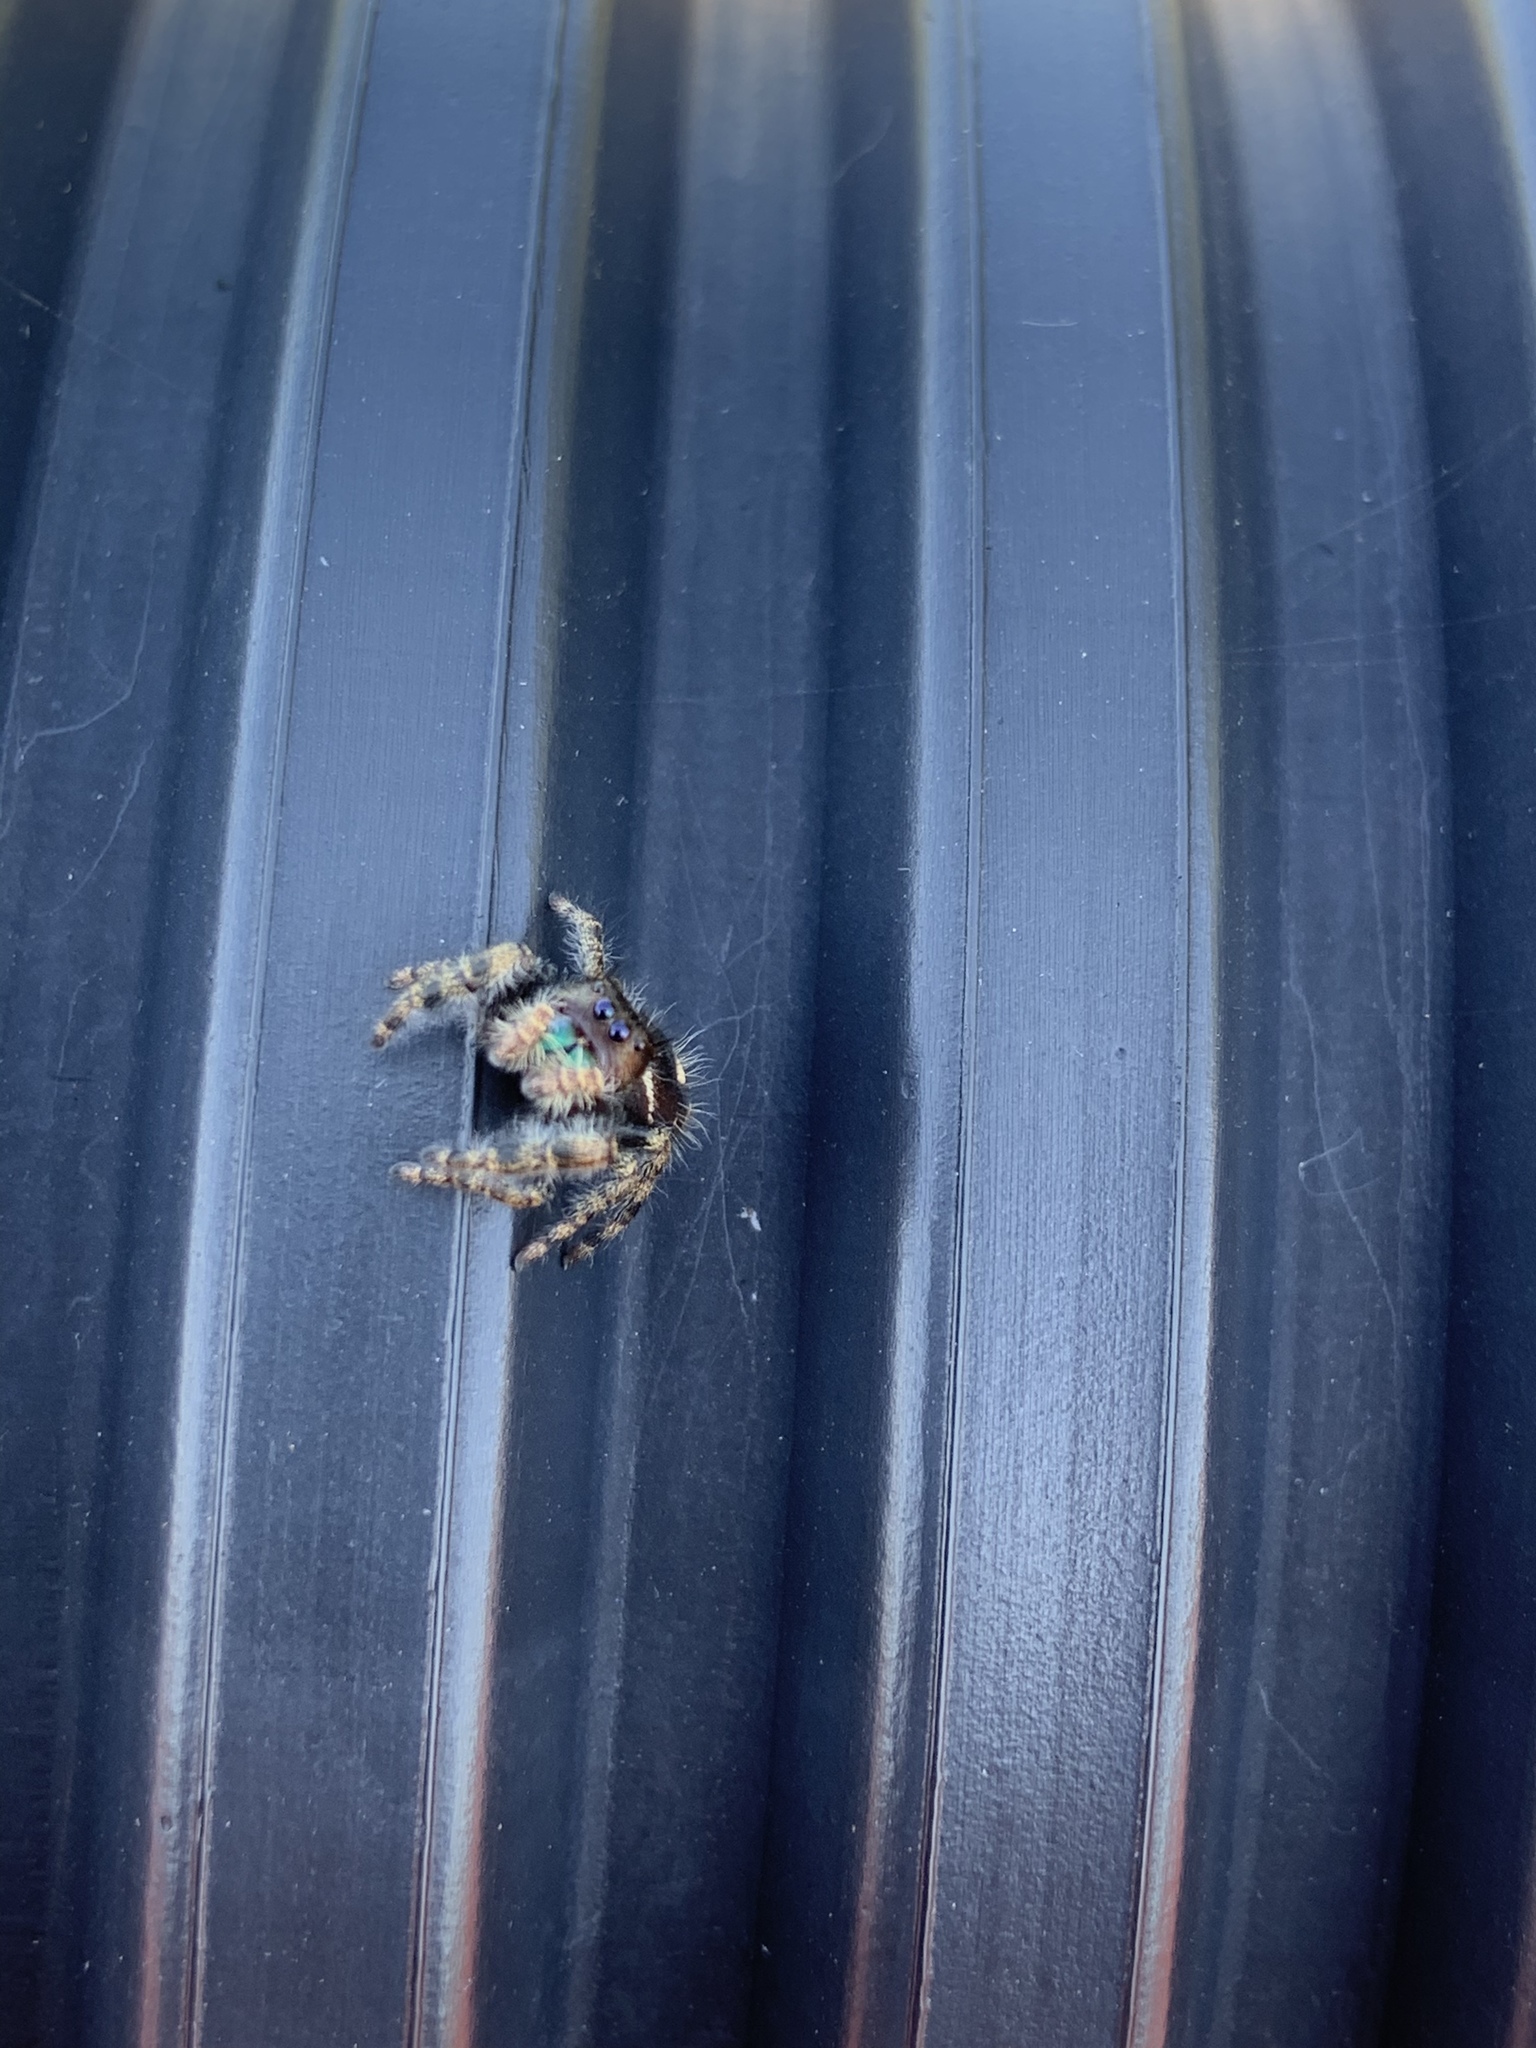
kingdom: Animalia
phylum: Arthropoda
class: Arachnida
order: Araneae
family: Salticidae
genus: Phidippus
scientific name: Phidippus audax
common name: Bold jumper
